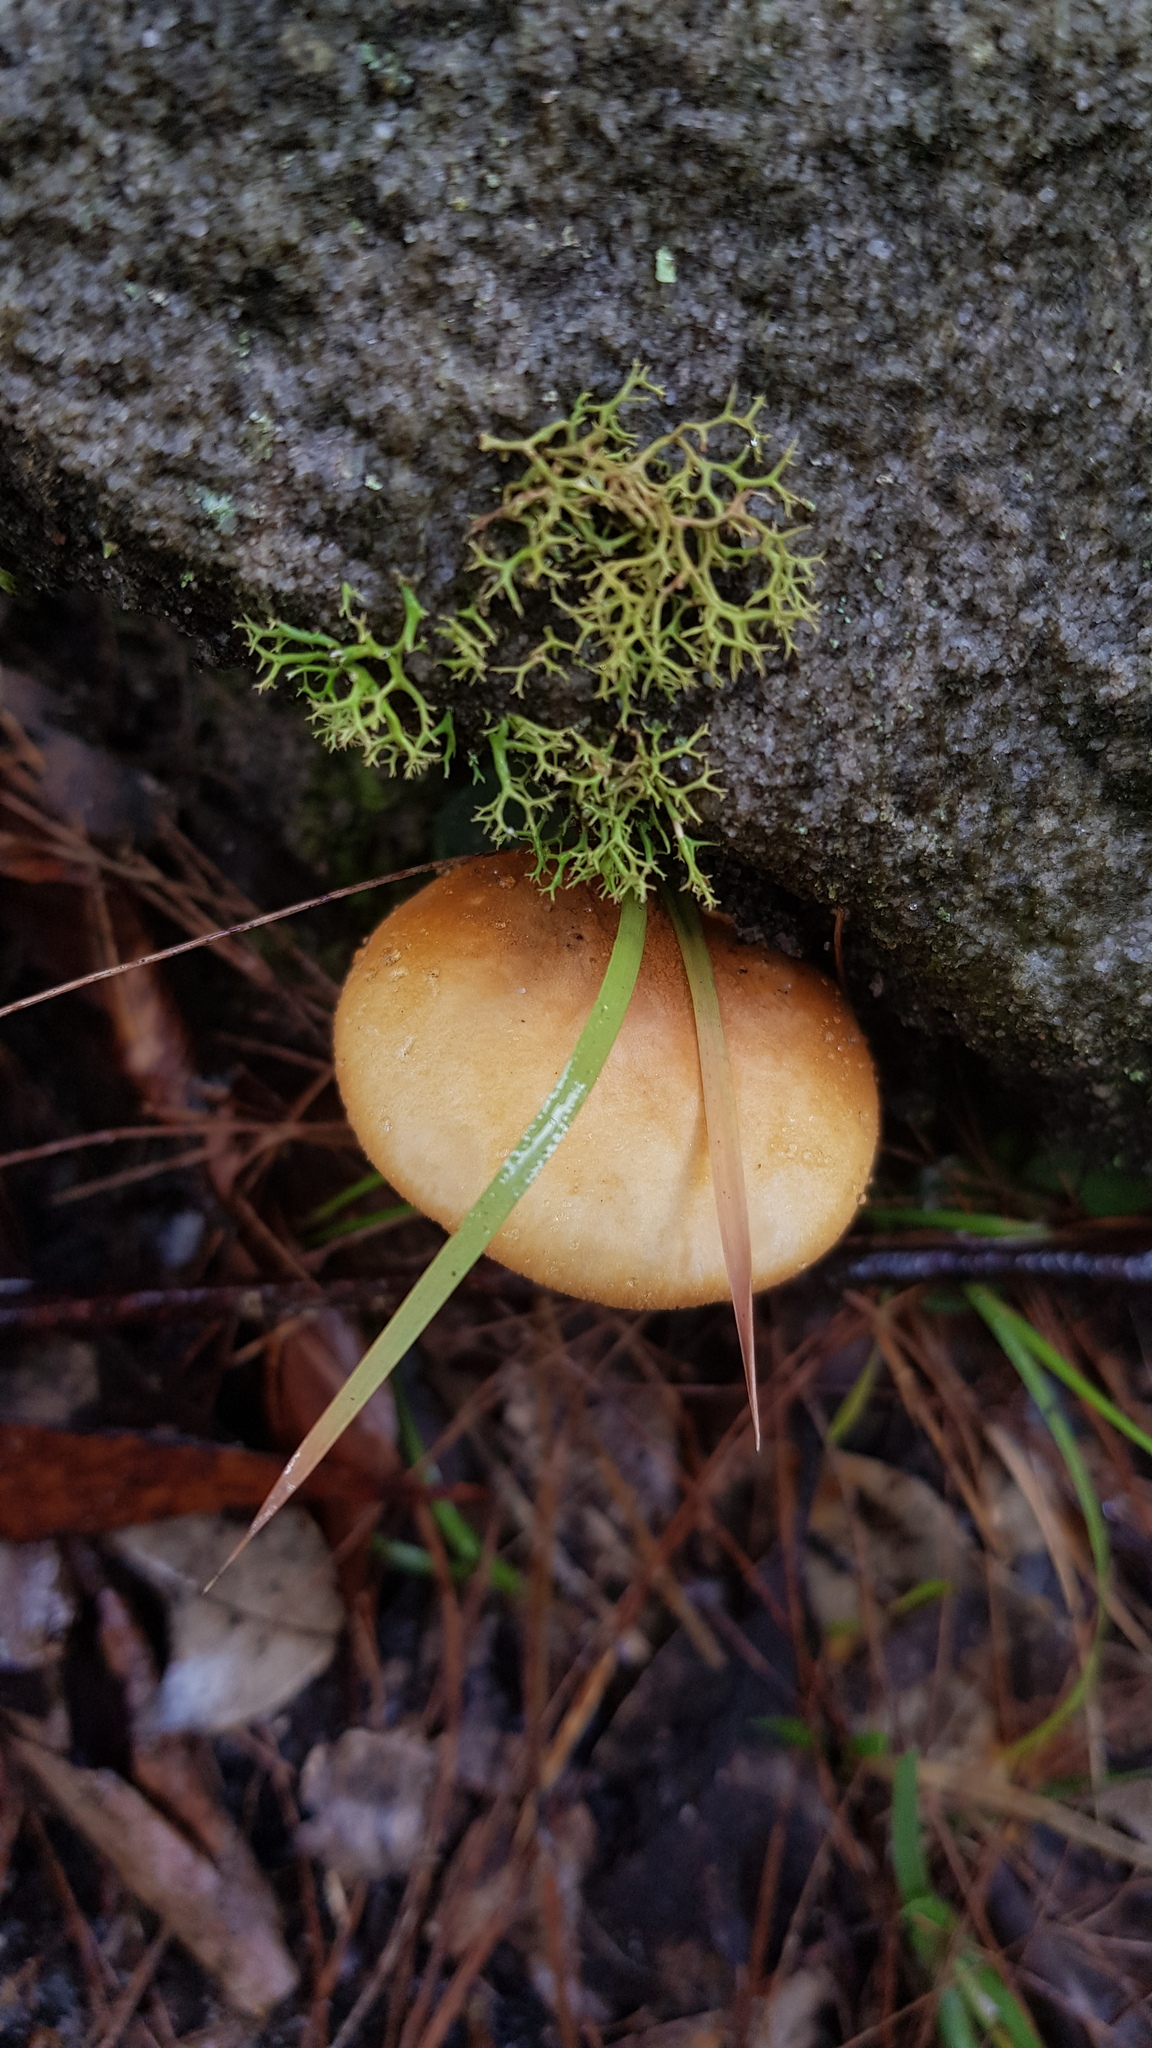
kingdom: Fungi
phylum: Basidiomycota
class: Agaricomycetes
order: Agaricales
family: Amanitaceae
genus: Amanita
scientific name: Amanita armeniaca
